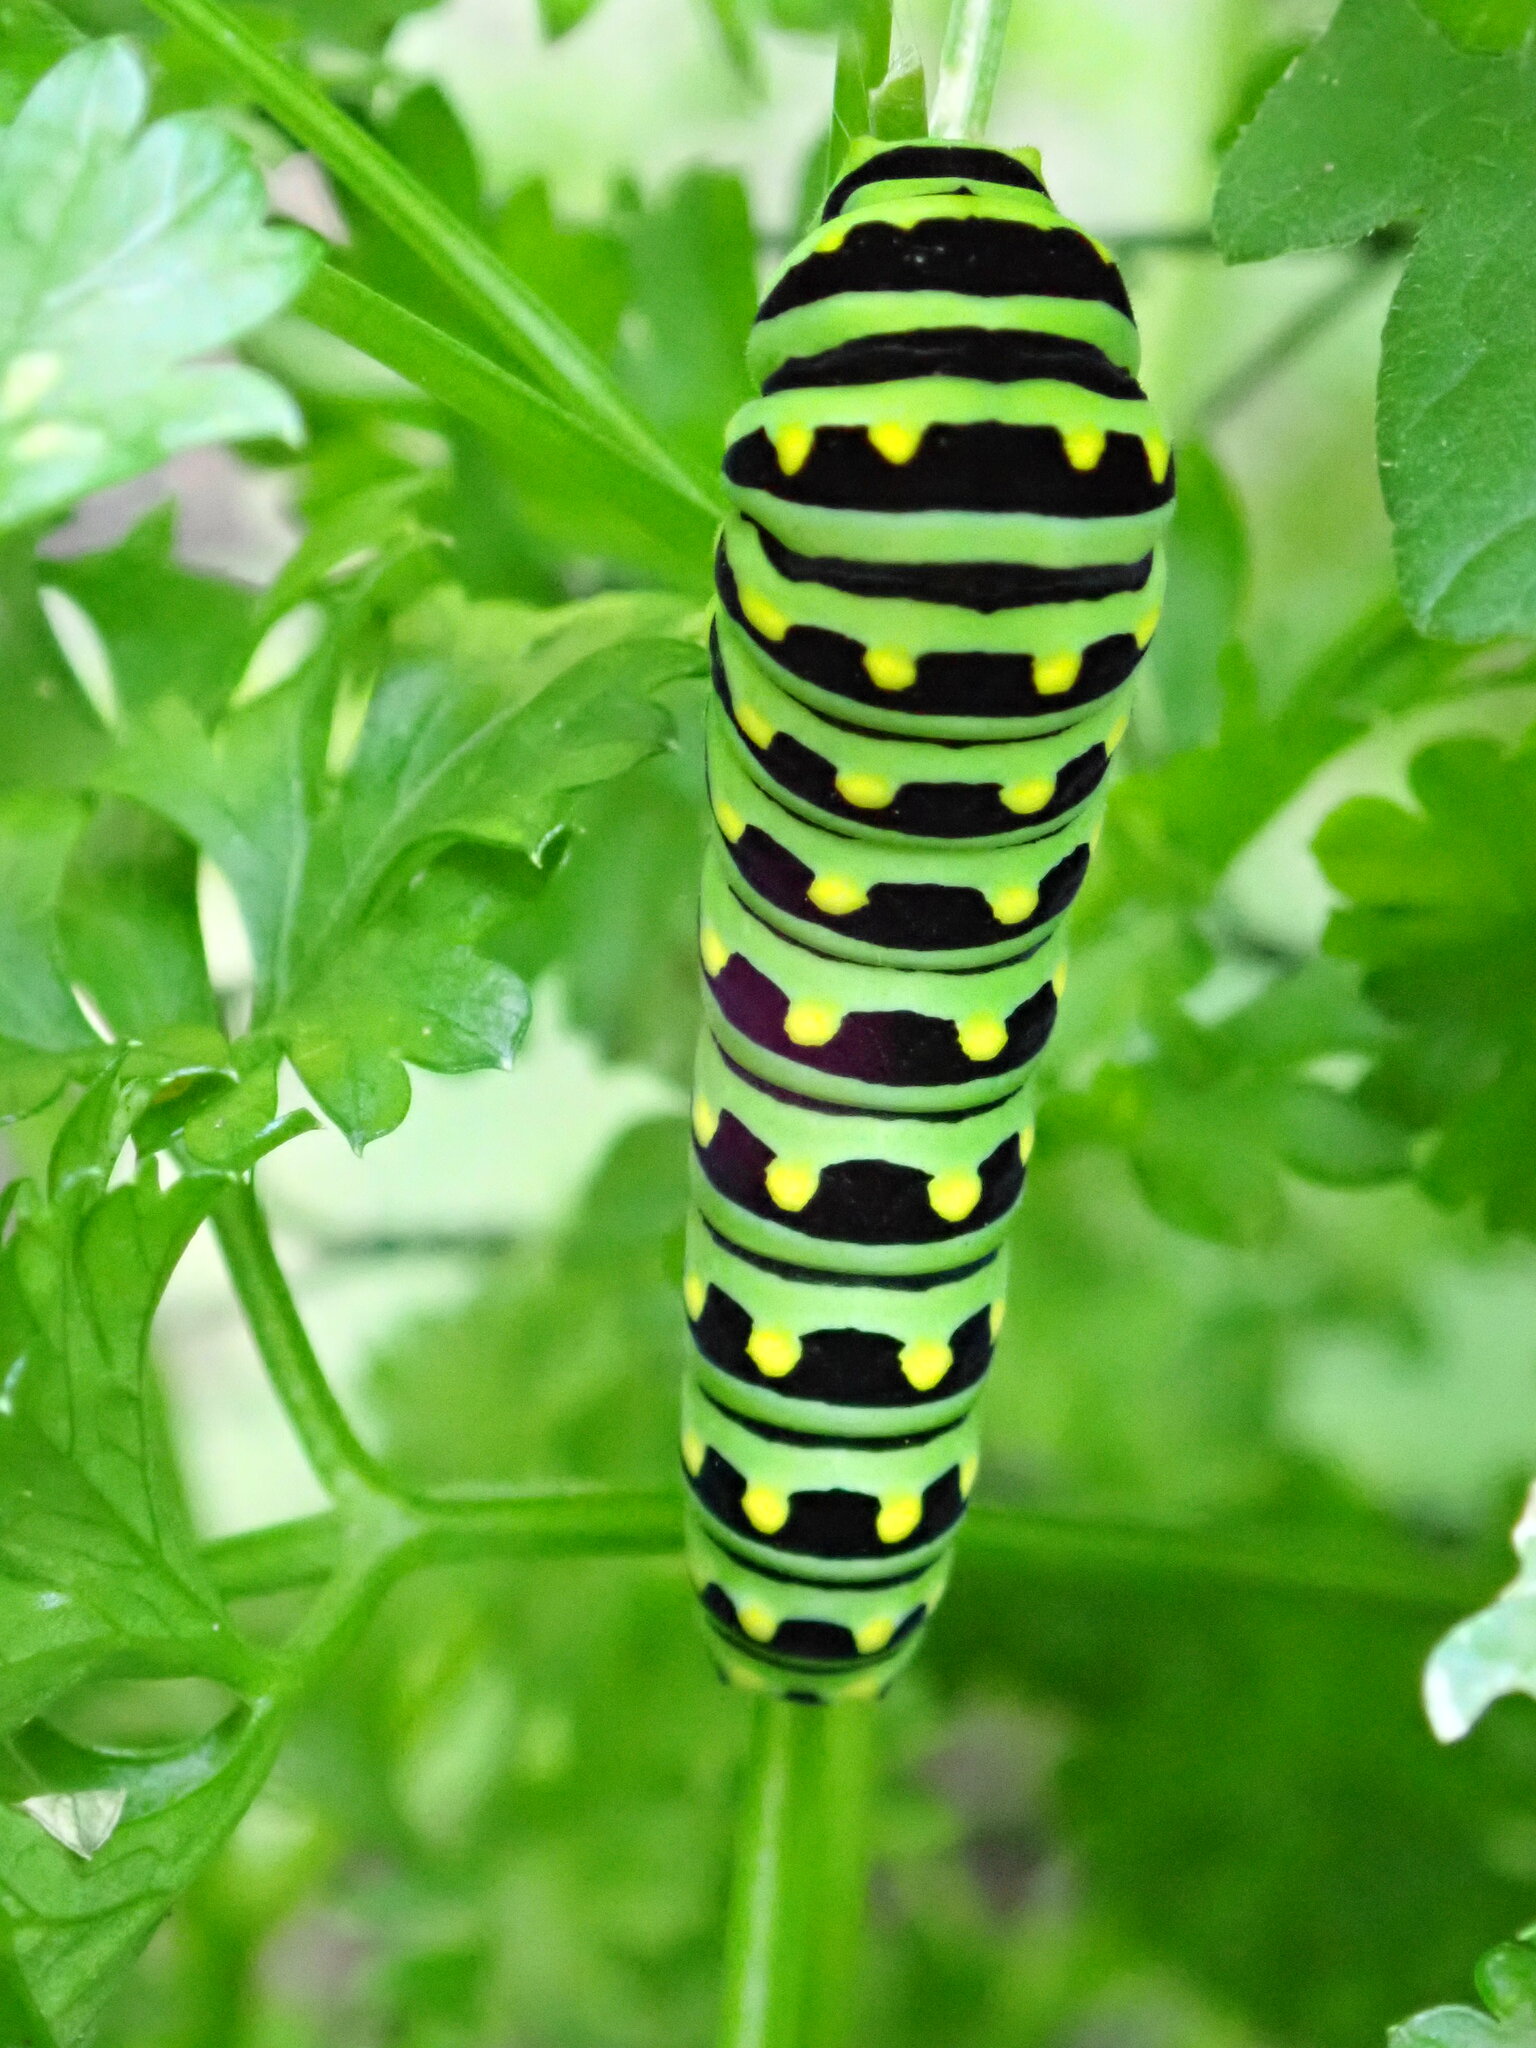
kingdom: Animalia
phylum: Arthropoda
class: Insecta
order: Lepidoptera
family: Papilionidae
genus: Papilio
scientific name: Papilio polyxenes
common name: Black swallowtail
